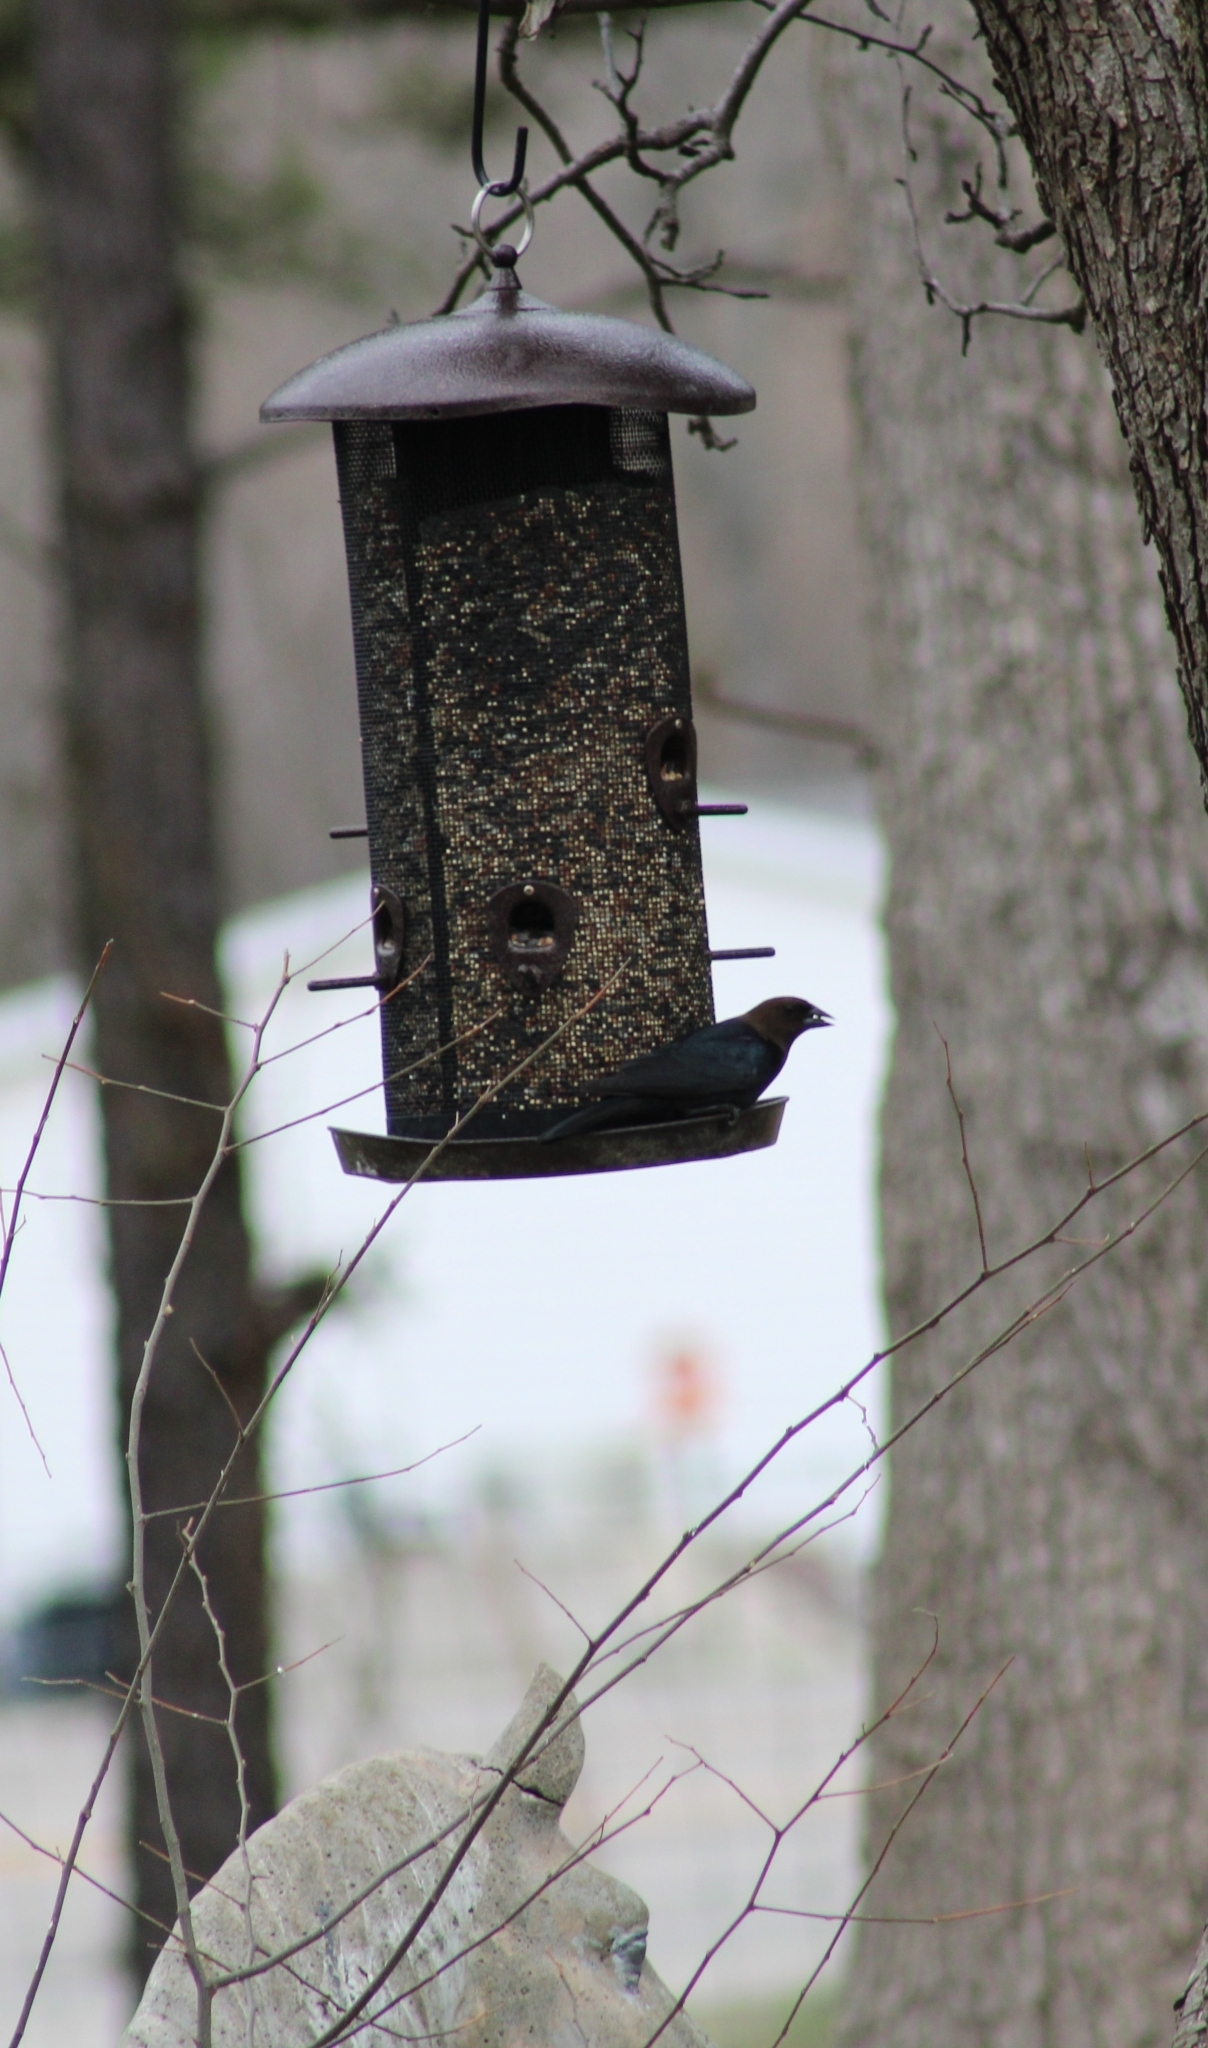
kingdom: Animalia
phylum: Chordata
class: Aves
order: Passeriformes
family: Icteridae
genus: Molothrus
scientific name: Molothrus ater
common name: Brown-headed cowbird
